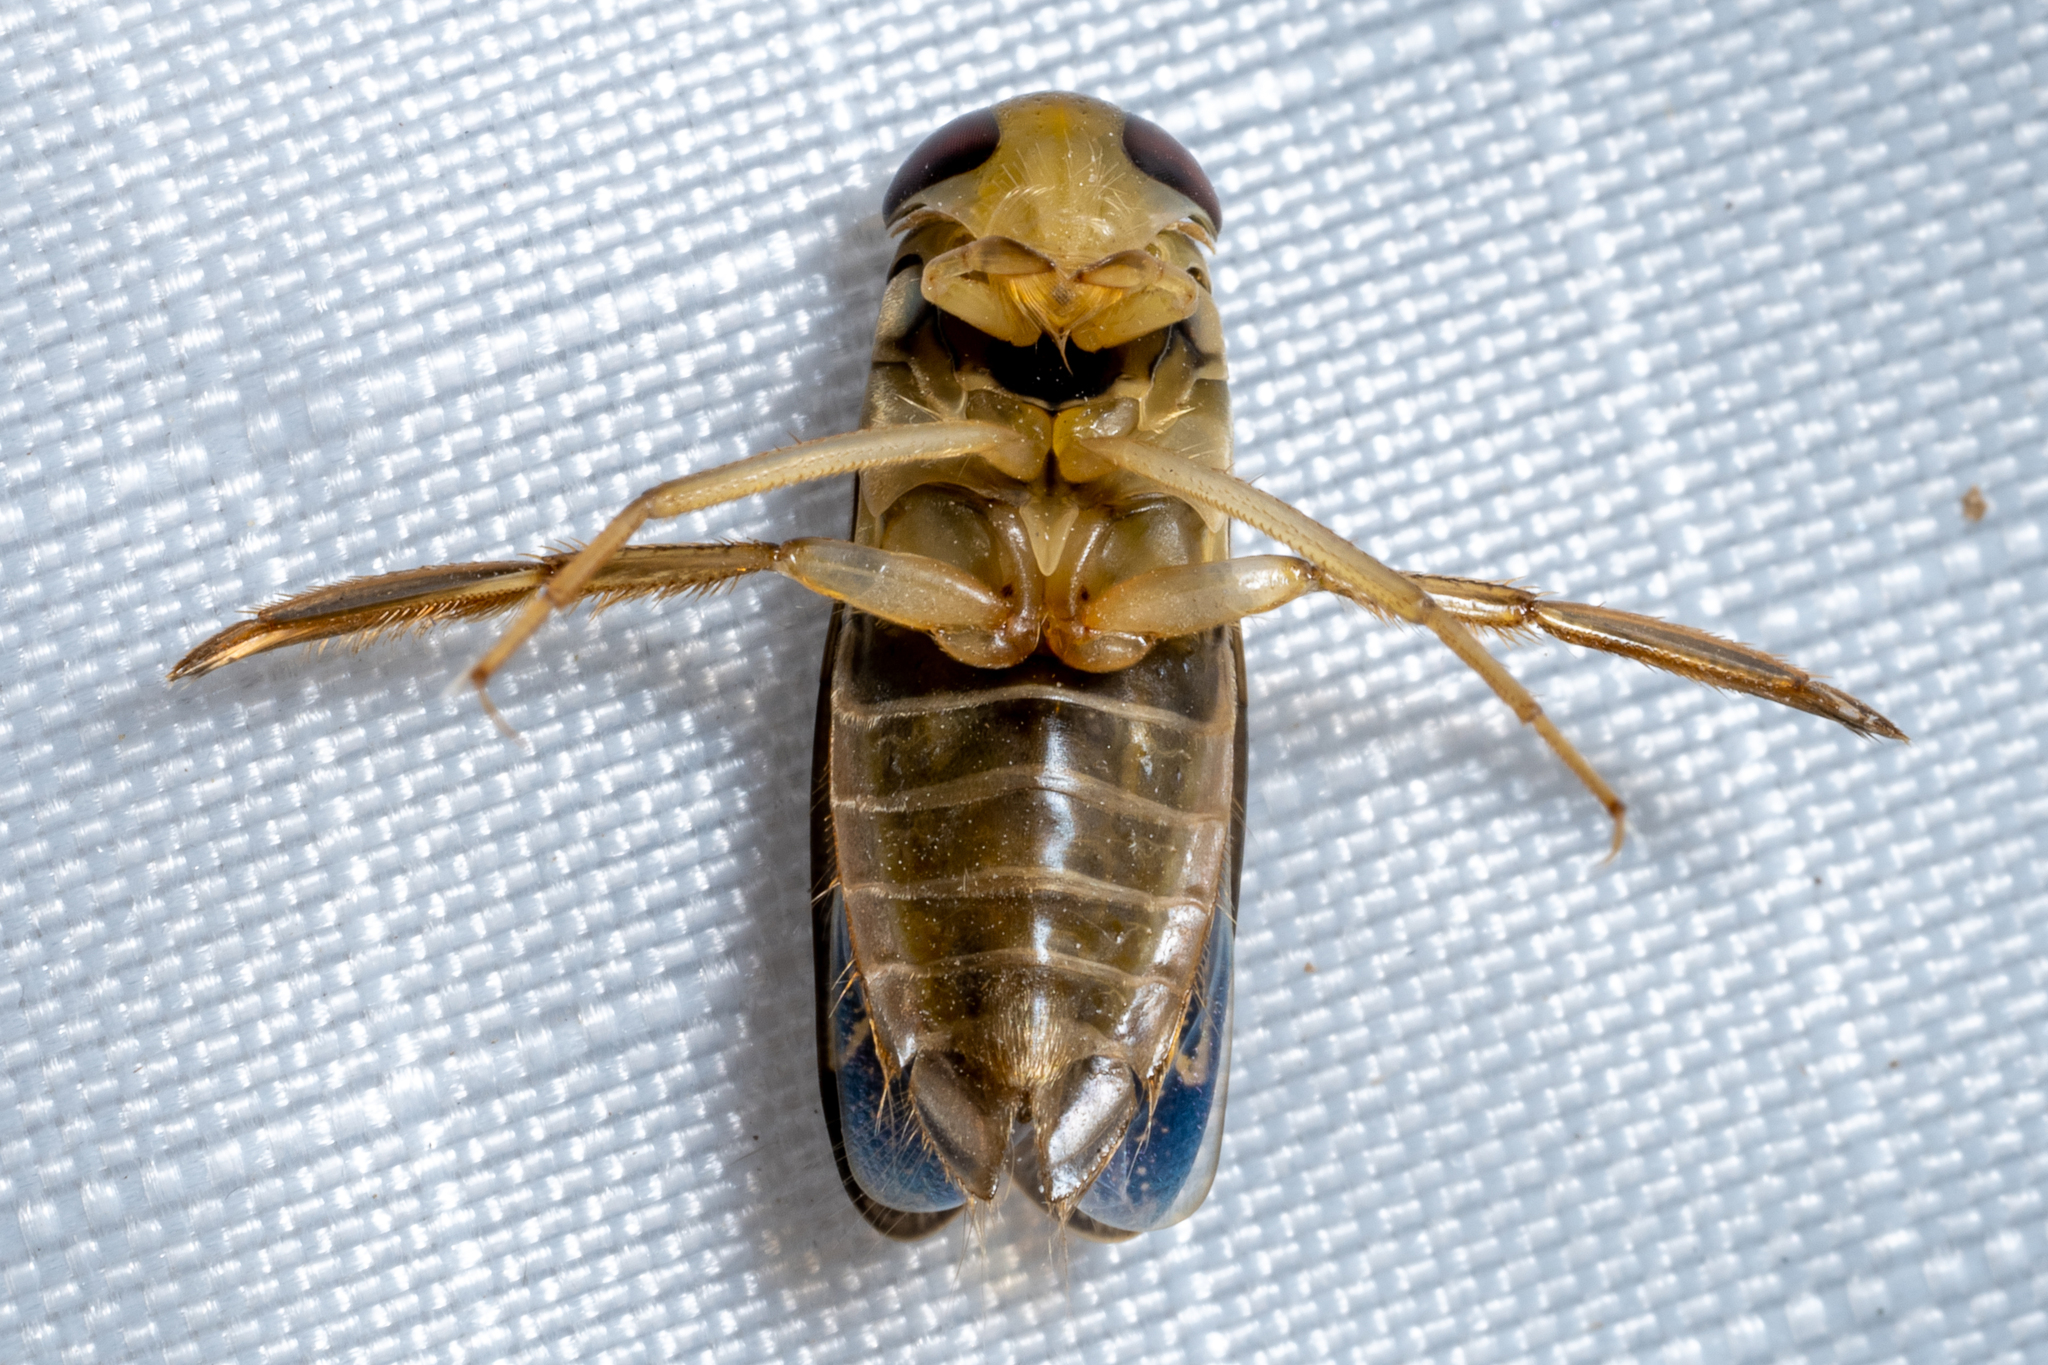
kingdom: Animalia
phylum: Arthropoda
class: Insecta
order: Hemiptera
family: Corixidae
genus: Hesperocorixa
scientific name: Hesperocorixa
